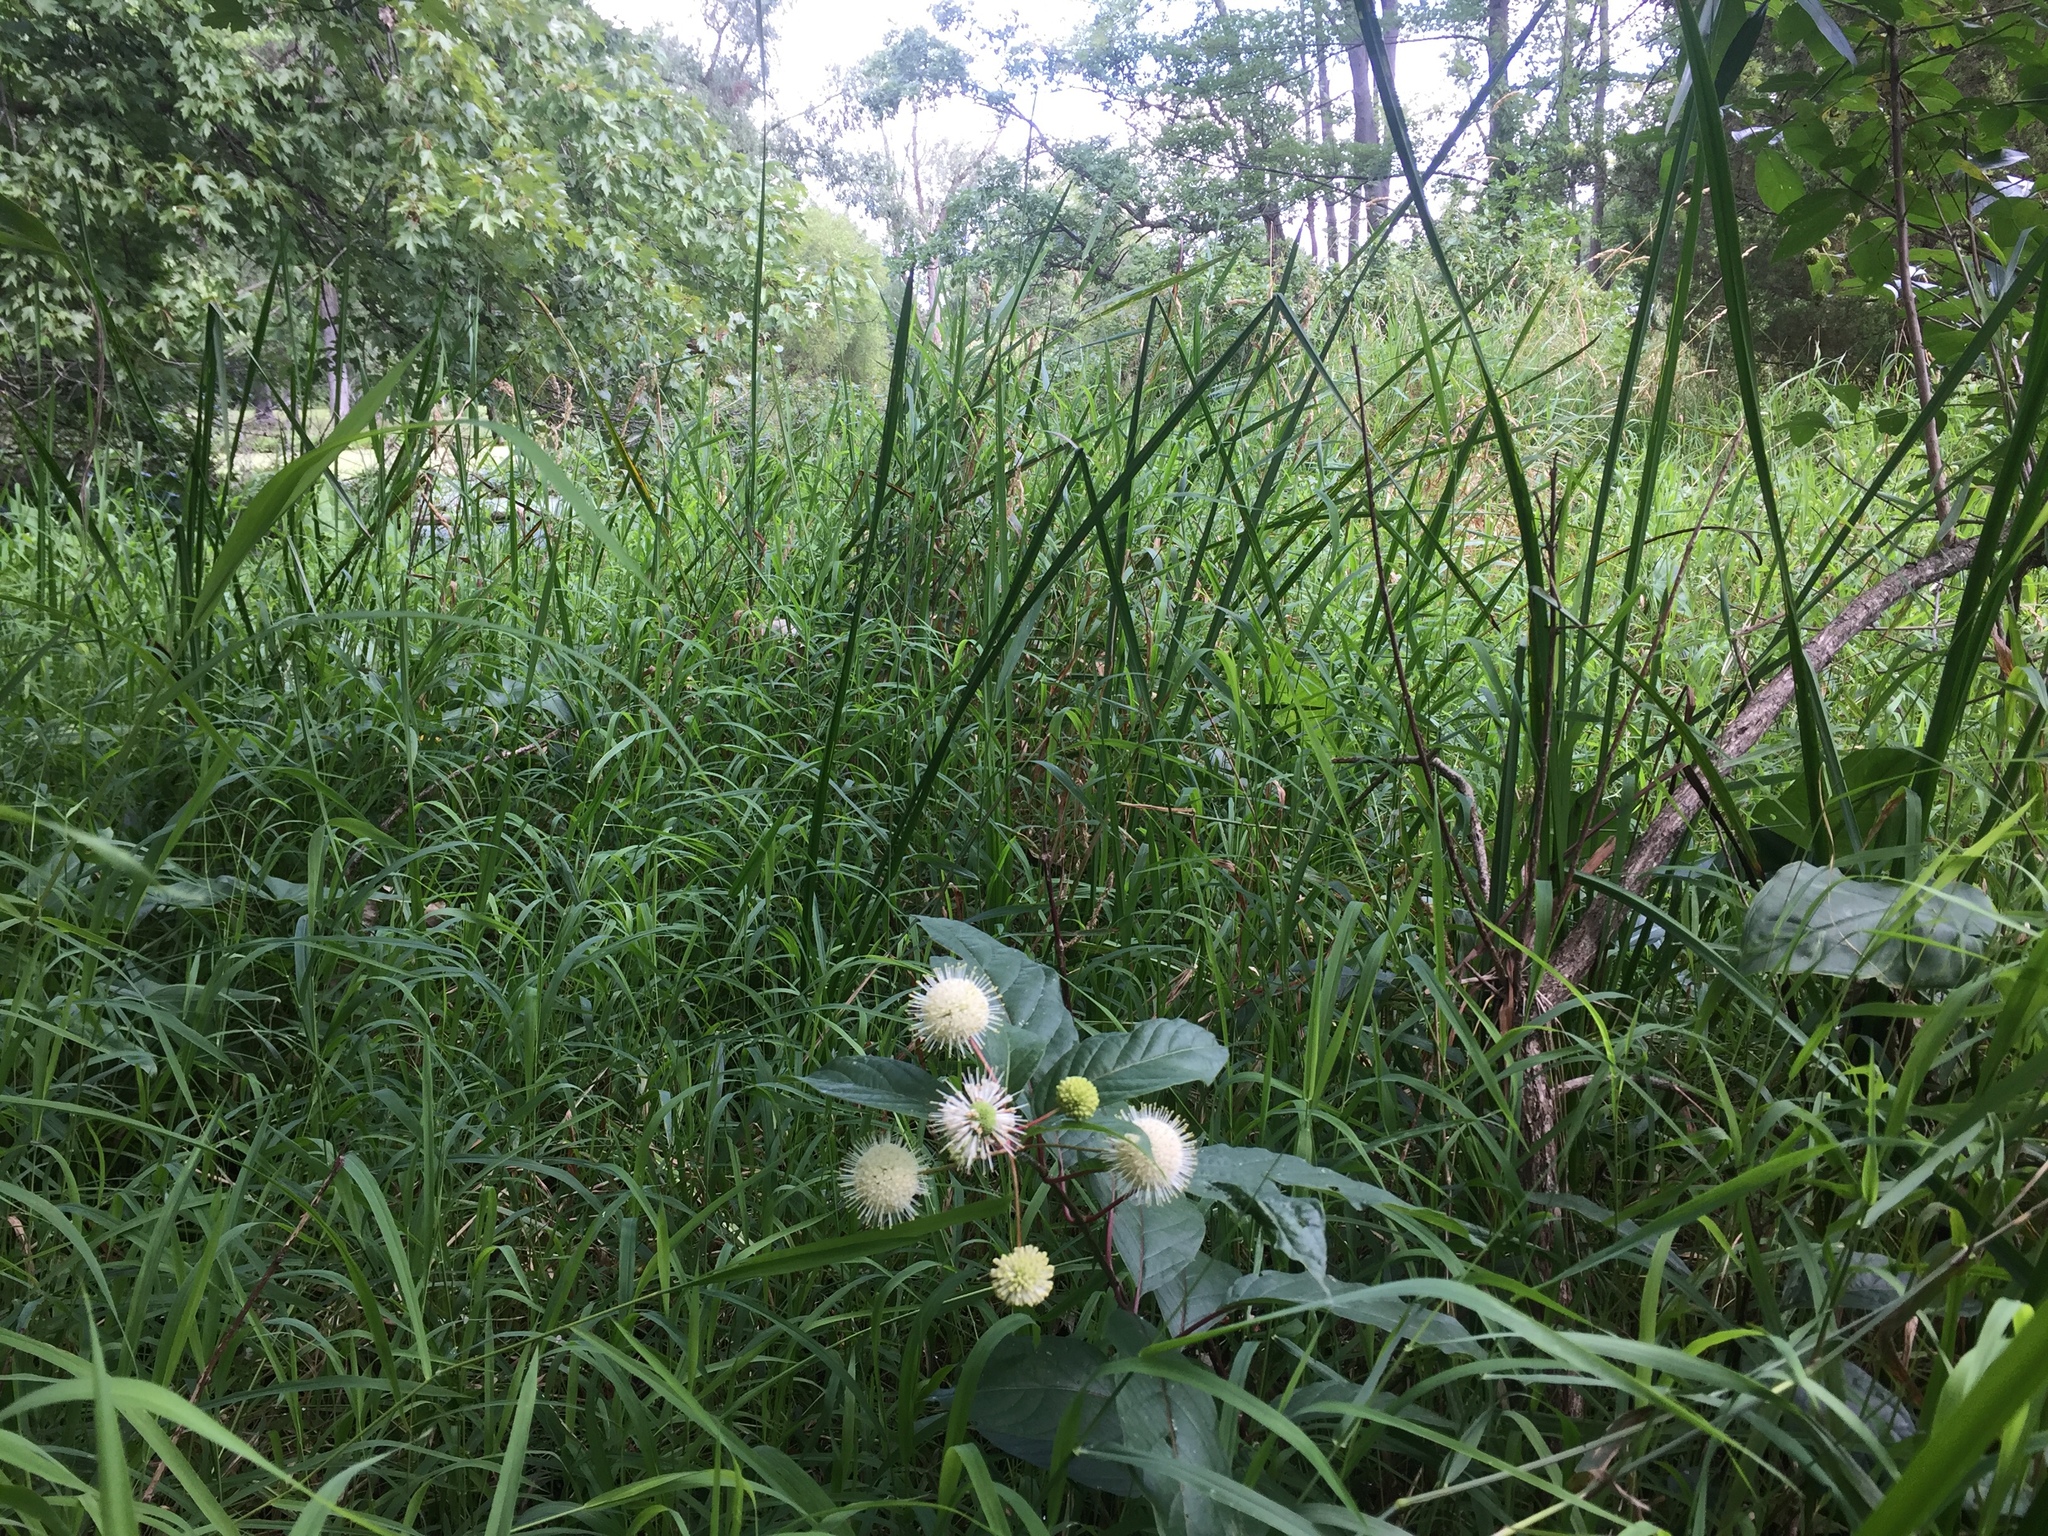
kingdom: Plantae
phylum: Tracheophyta
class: Magnoliopsida
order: Gentianales
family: Rubiaceae
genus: Cephalanthus
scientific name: Cephalanthus occidentalis
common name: Button-willow
